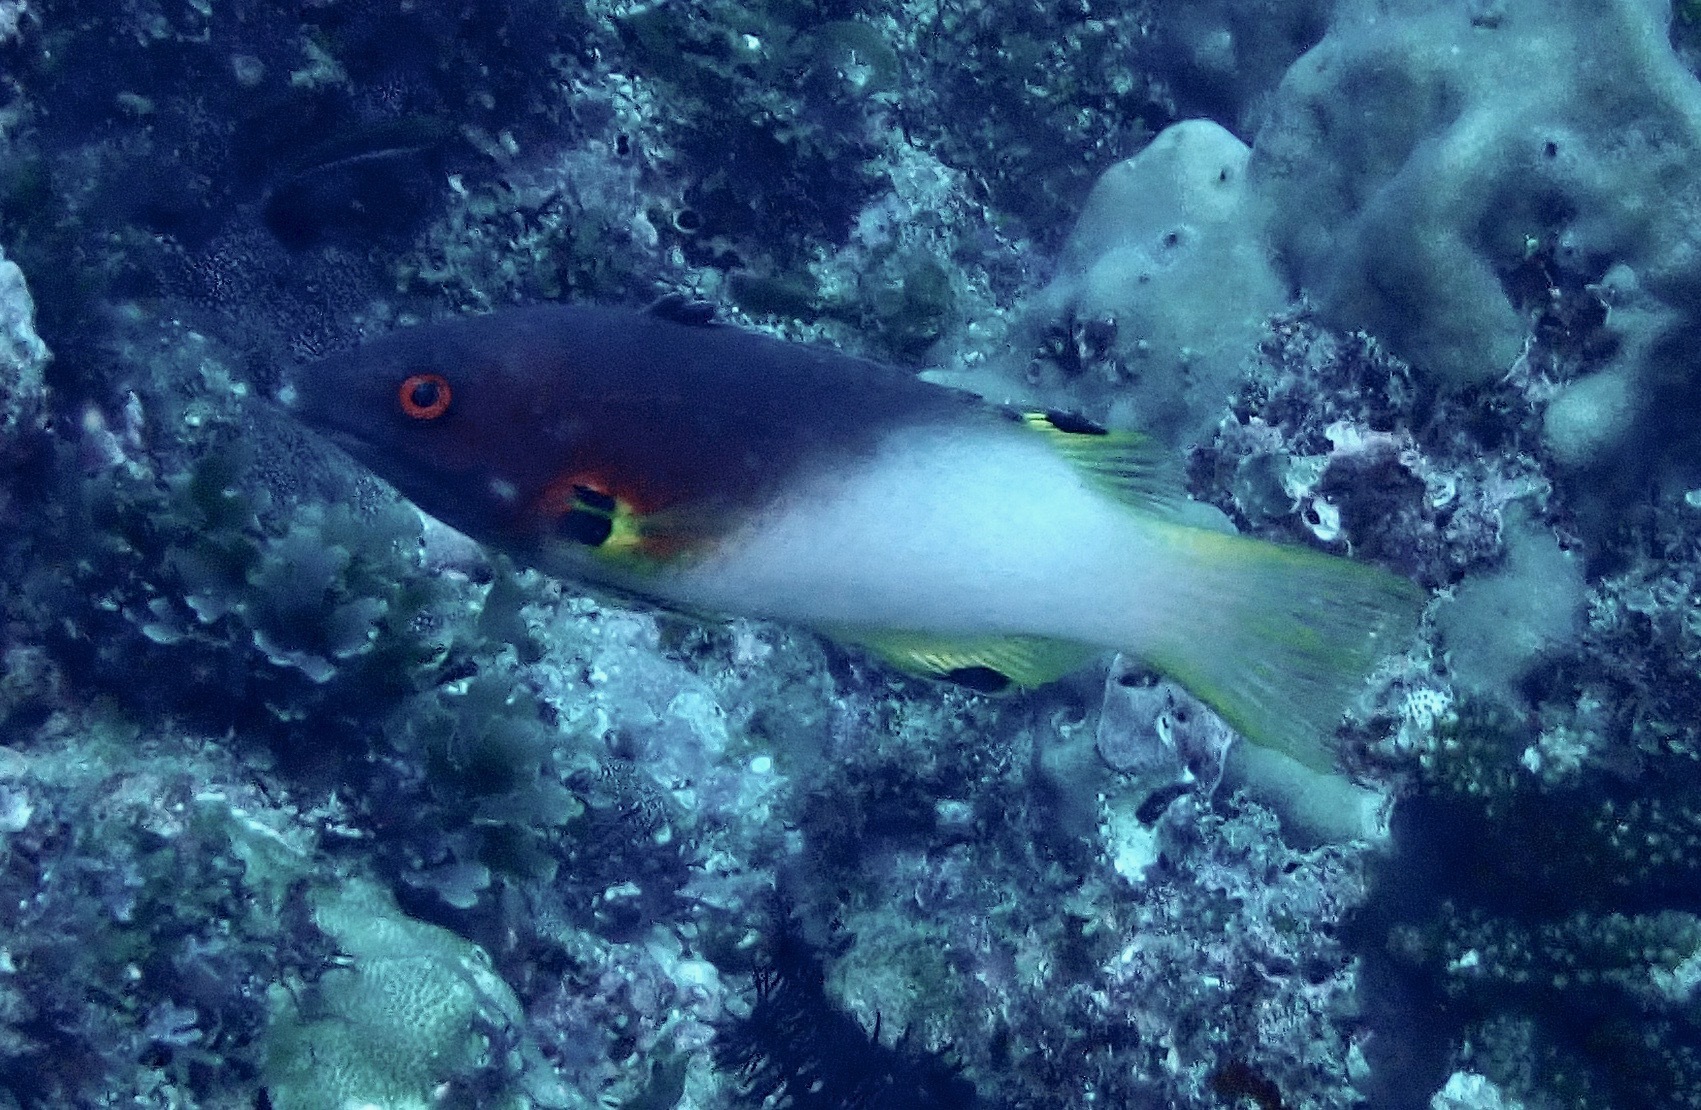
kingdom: Animalia
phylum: Chordata
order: Perciformes
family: Labridae
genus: Bodianus
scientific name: Bodianus axillaris
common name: Axilspot hogfish
